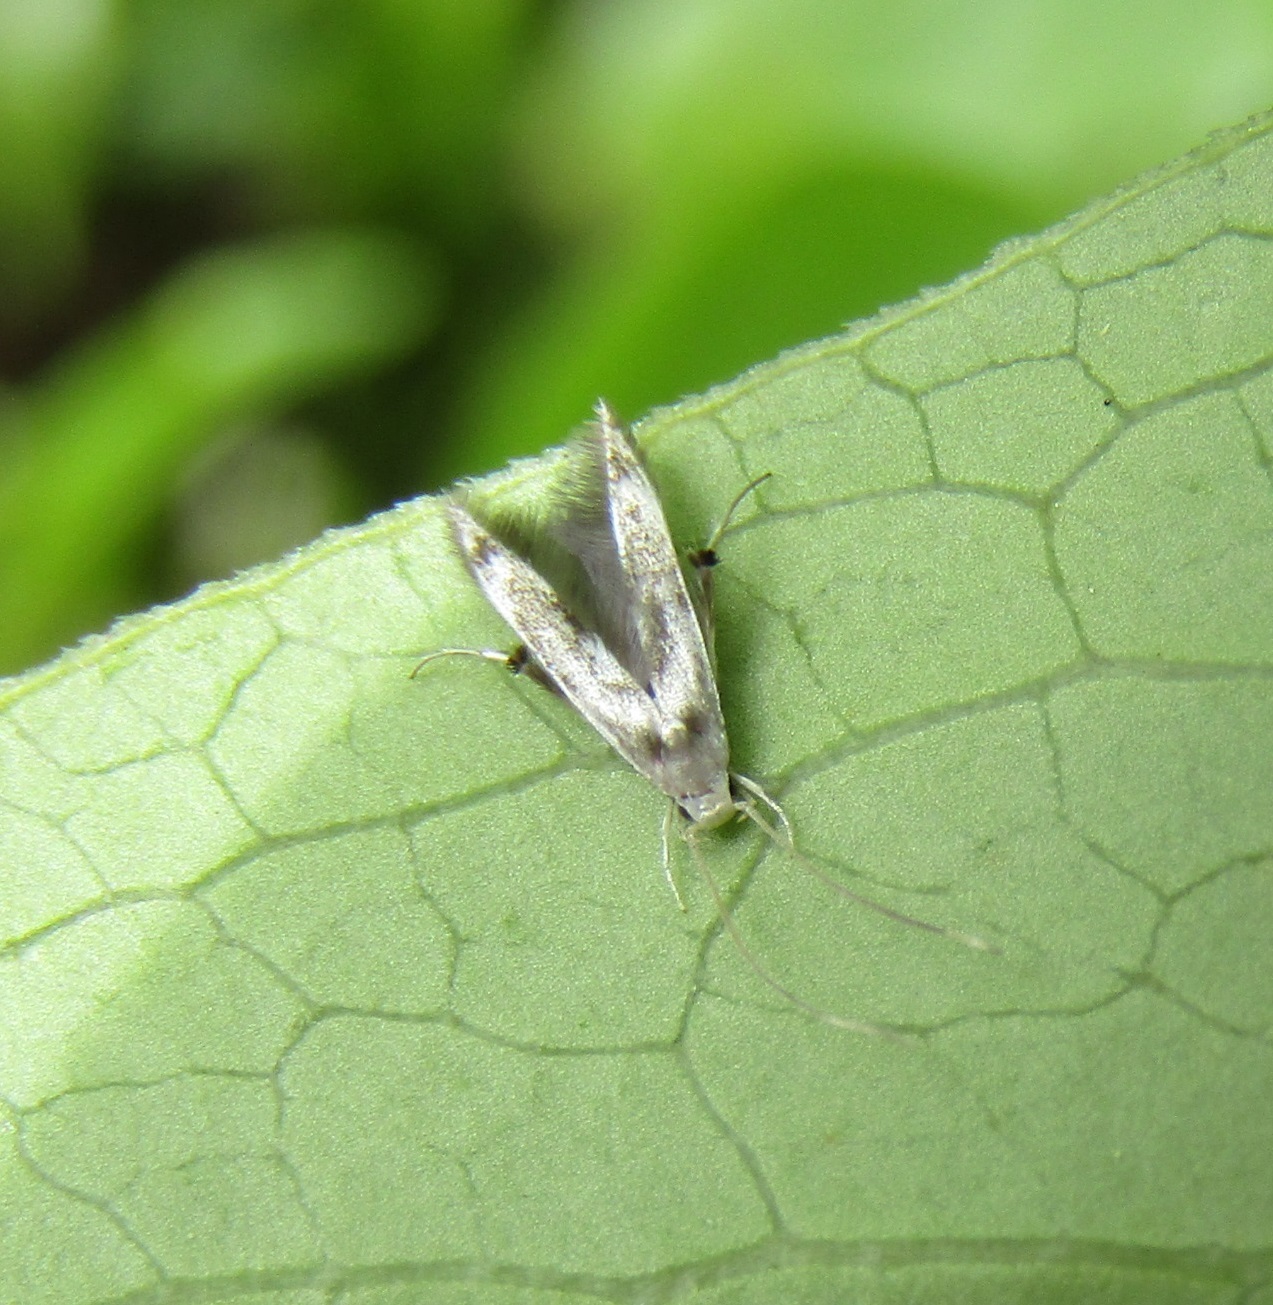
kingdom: Animalia
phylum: Arthropoda
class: Insecta
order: Lepidoptera
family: Stathmopodidae
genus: Thylacosceles
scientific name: Thylacosceles radians
